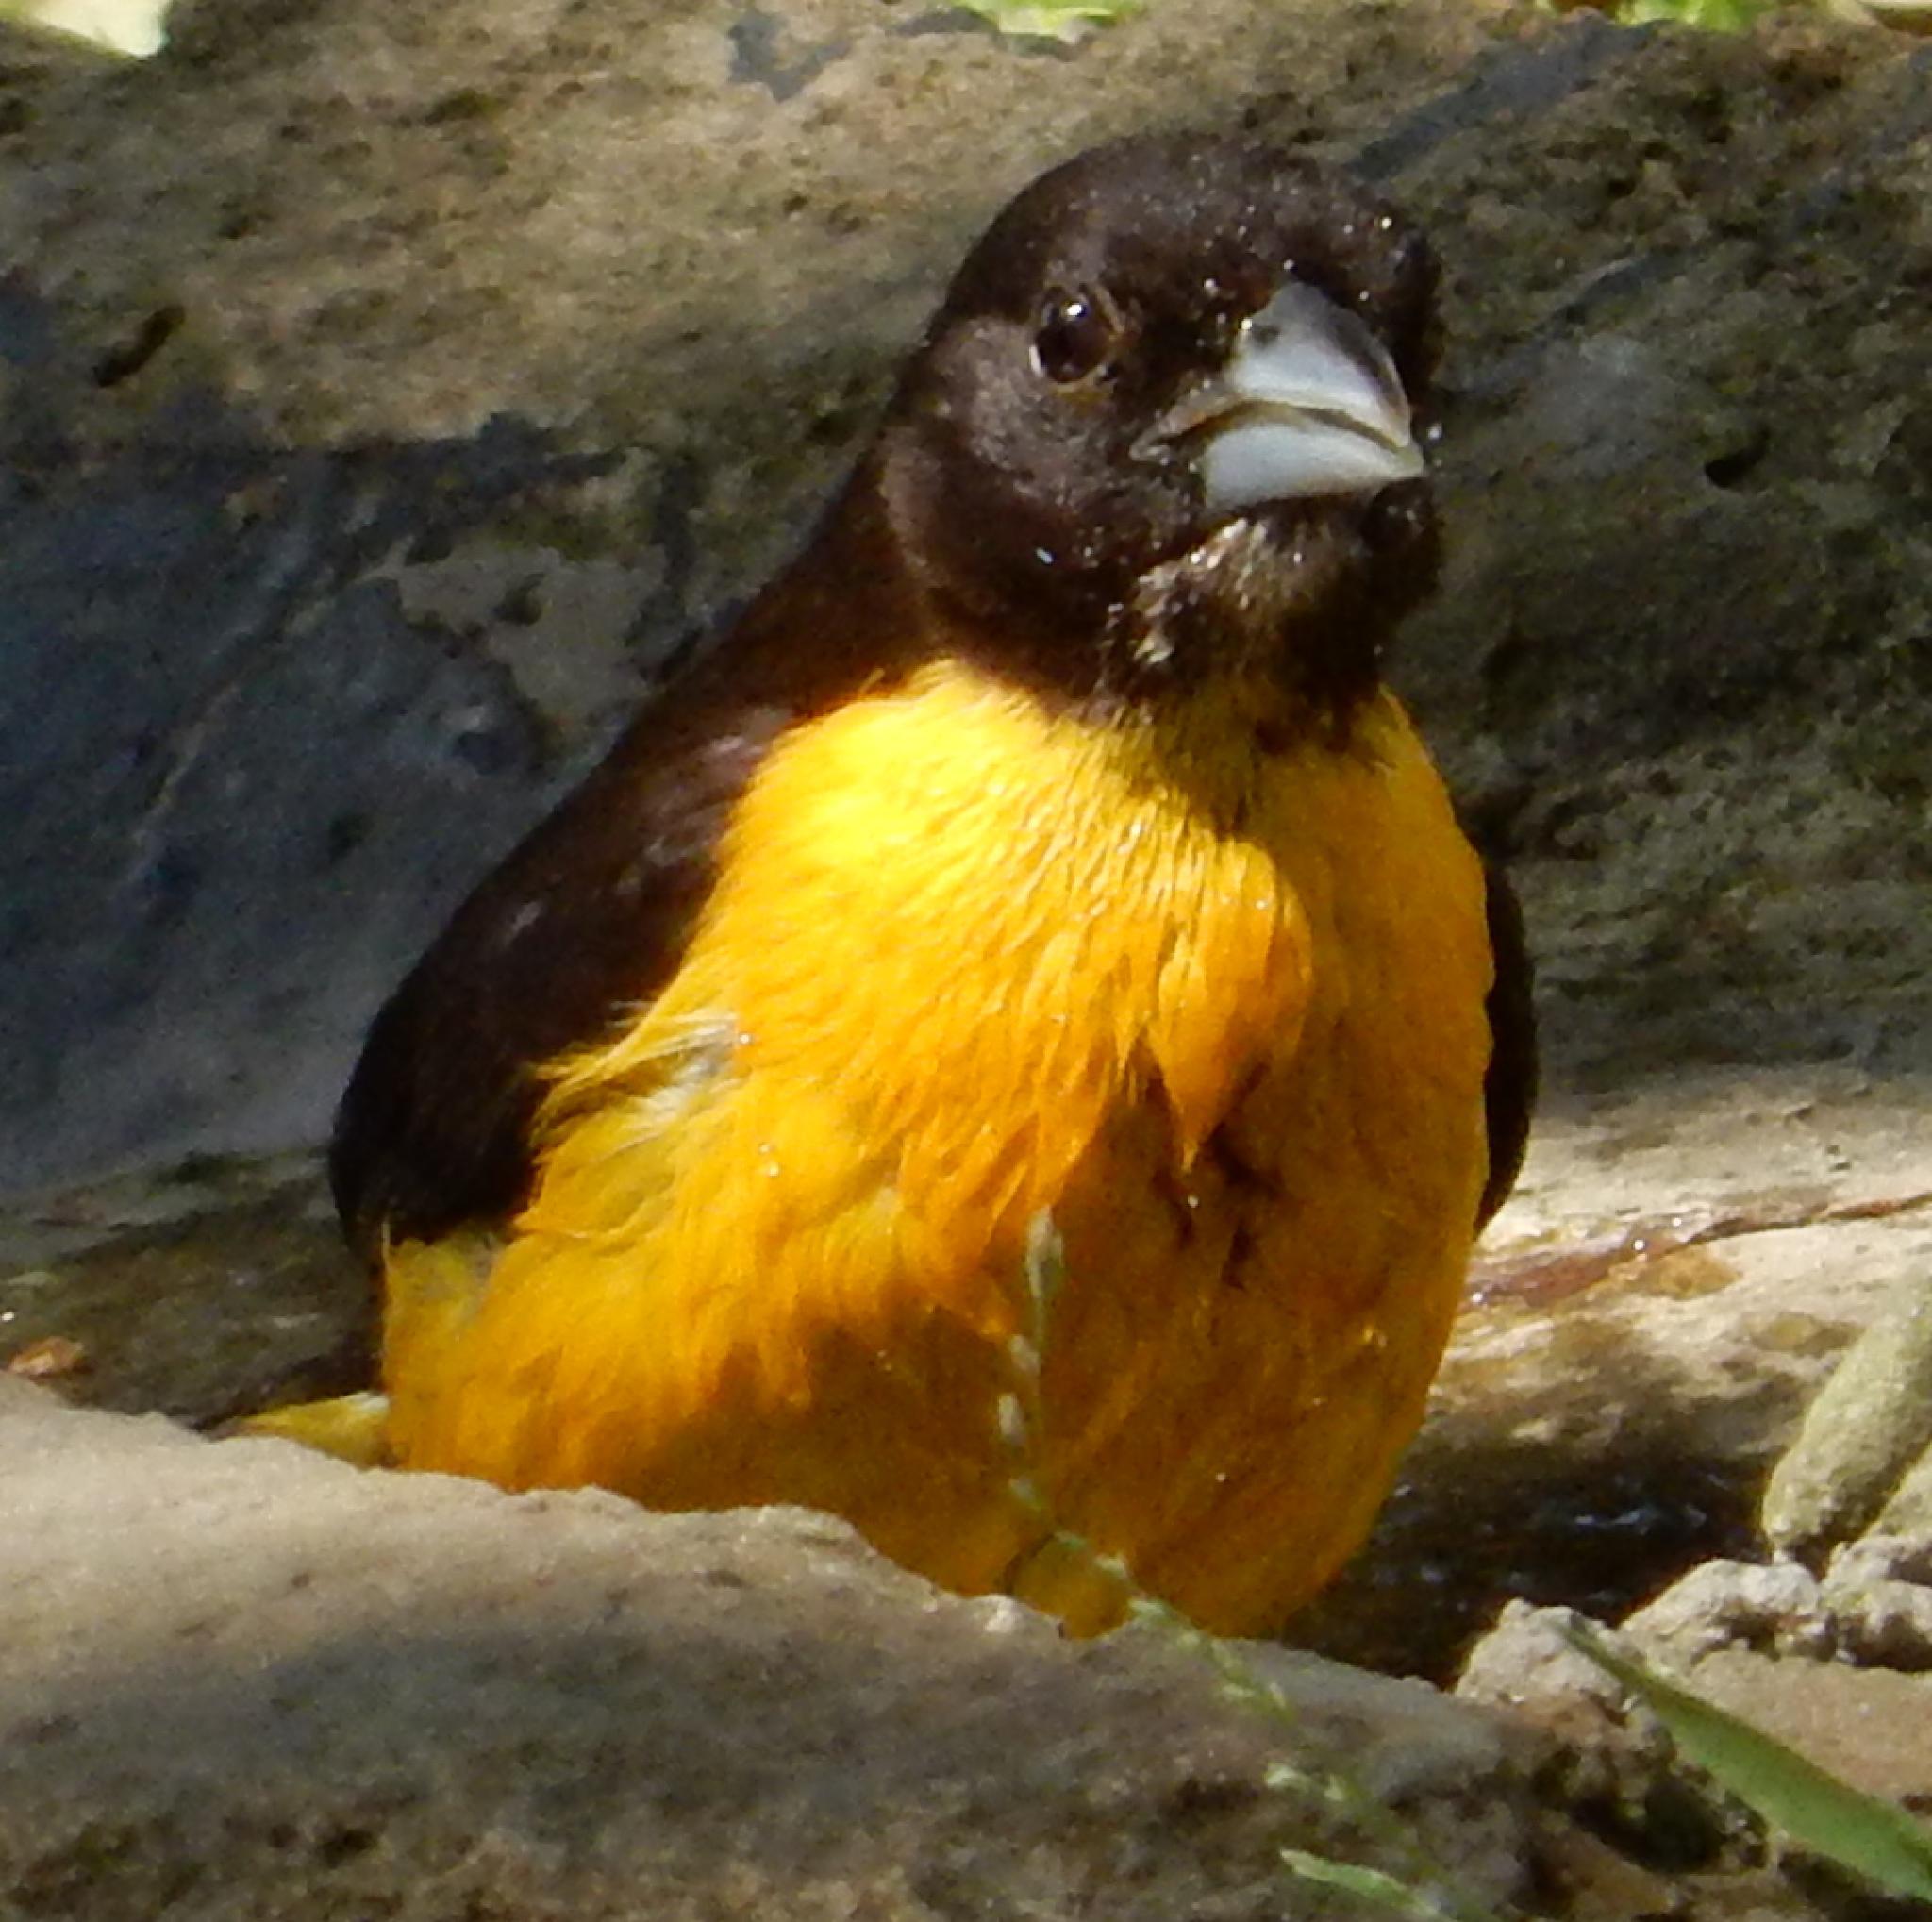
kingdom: Animalia
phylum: Chordata
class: Aves
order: Passeriformes
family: Ploceidae
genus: Ploceus
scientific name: Ploceus bicolor
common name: Dark-backed weaver
